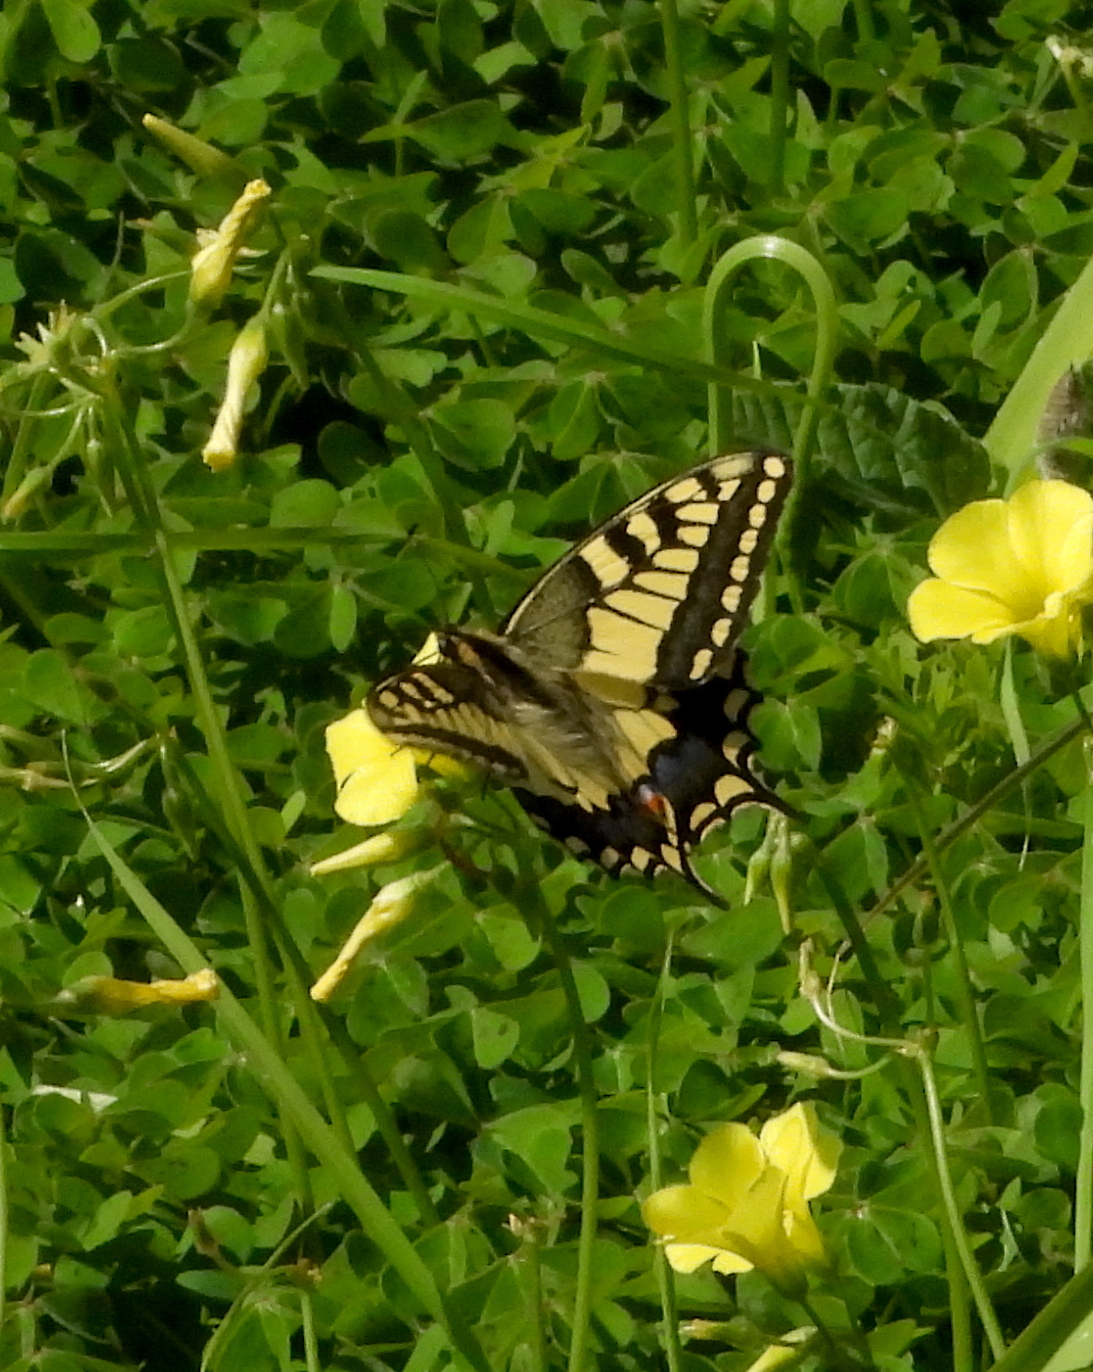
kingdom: Animalia
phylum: Arthropoda
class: Insecta
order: Lepidoptera
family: Papilionidae
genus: Papilio
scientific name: Papilio machaon
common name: Swallowtail
